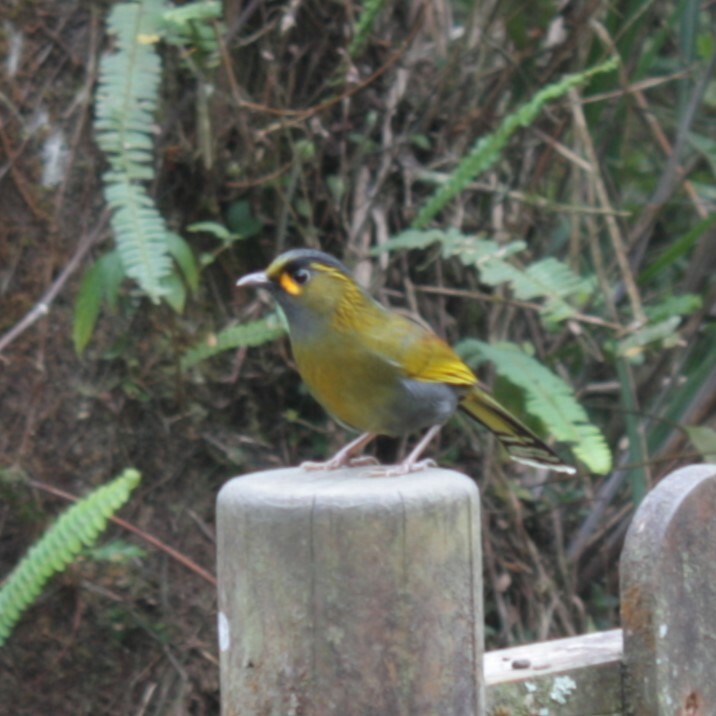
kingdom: Animalia
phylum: Chordata
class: Aves
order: Passeriformes
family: Leiothrichidae
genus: Liocichla
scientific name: Liocichla steerii
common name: Steere's liocichla
